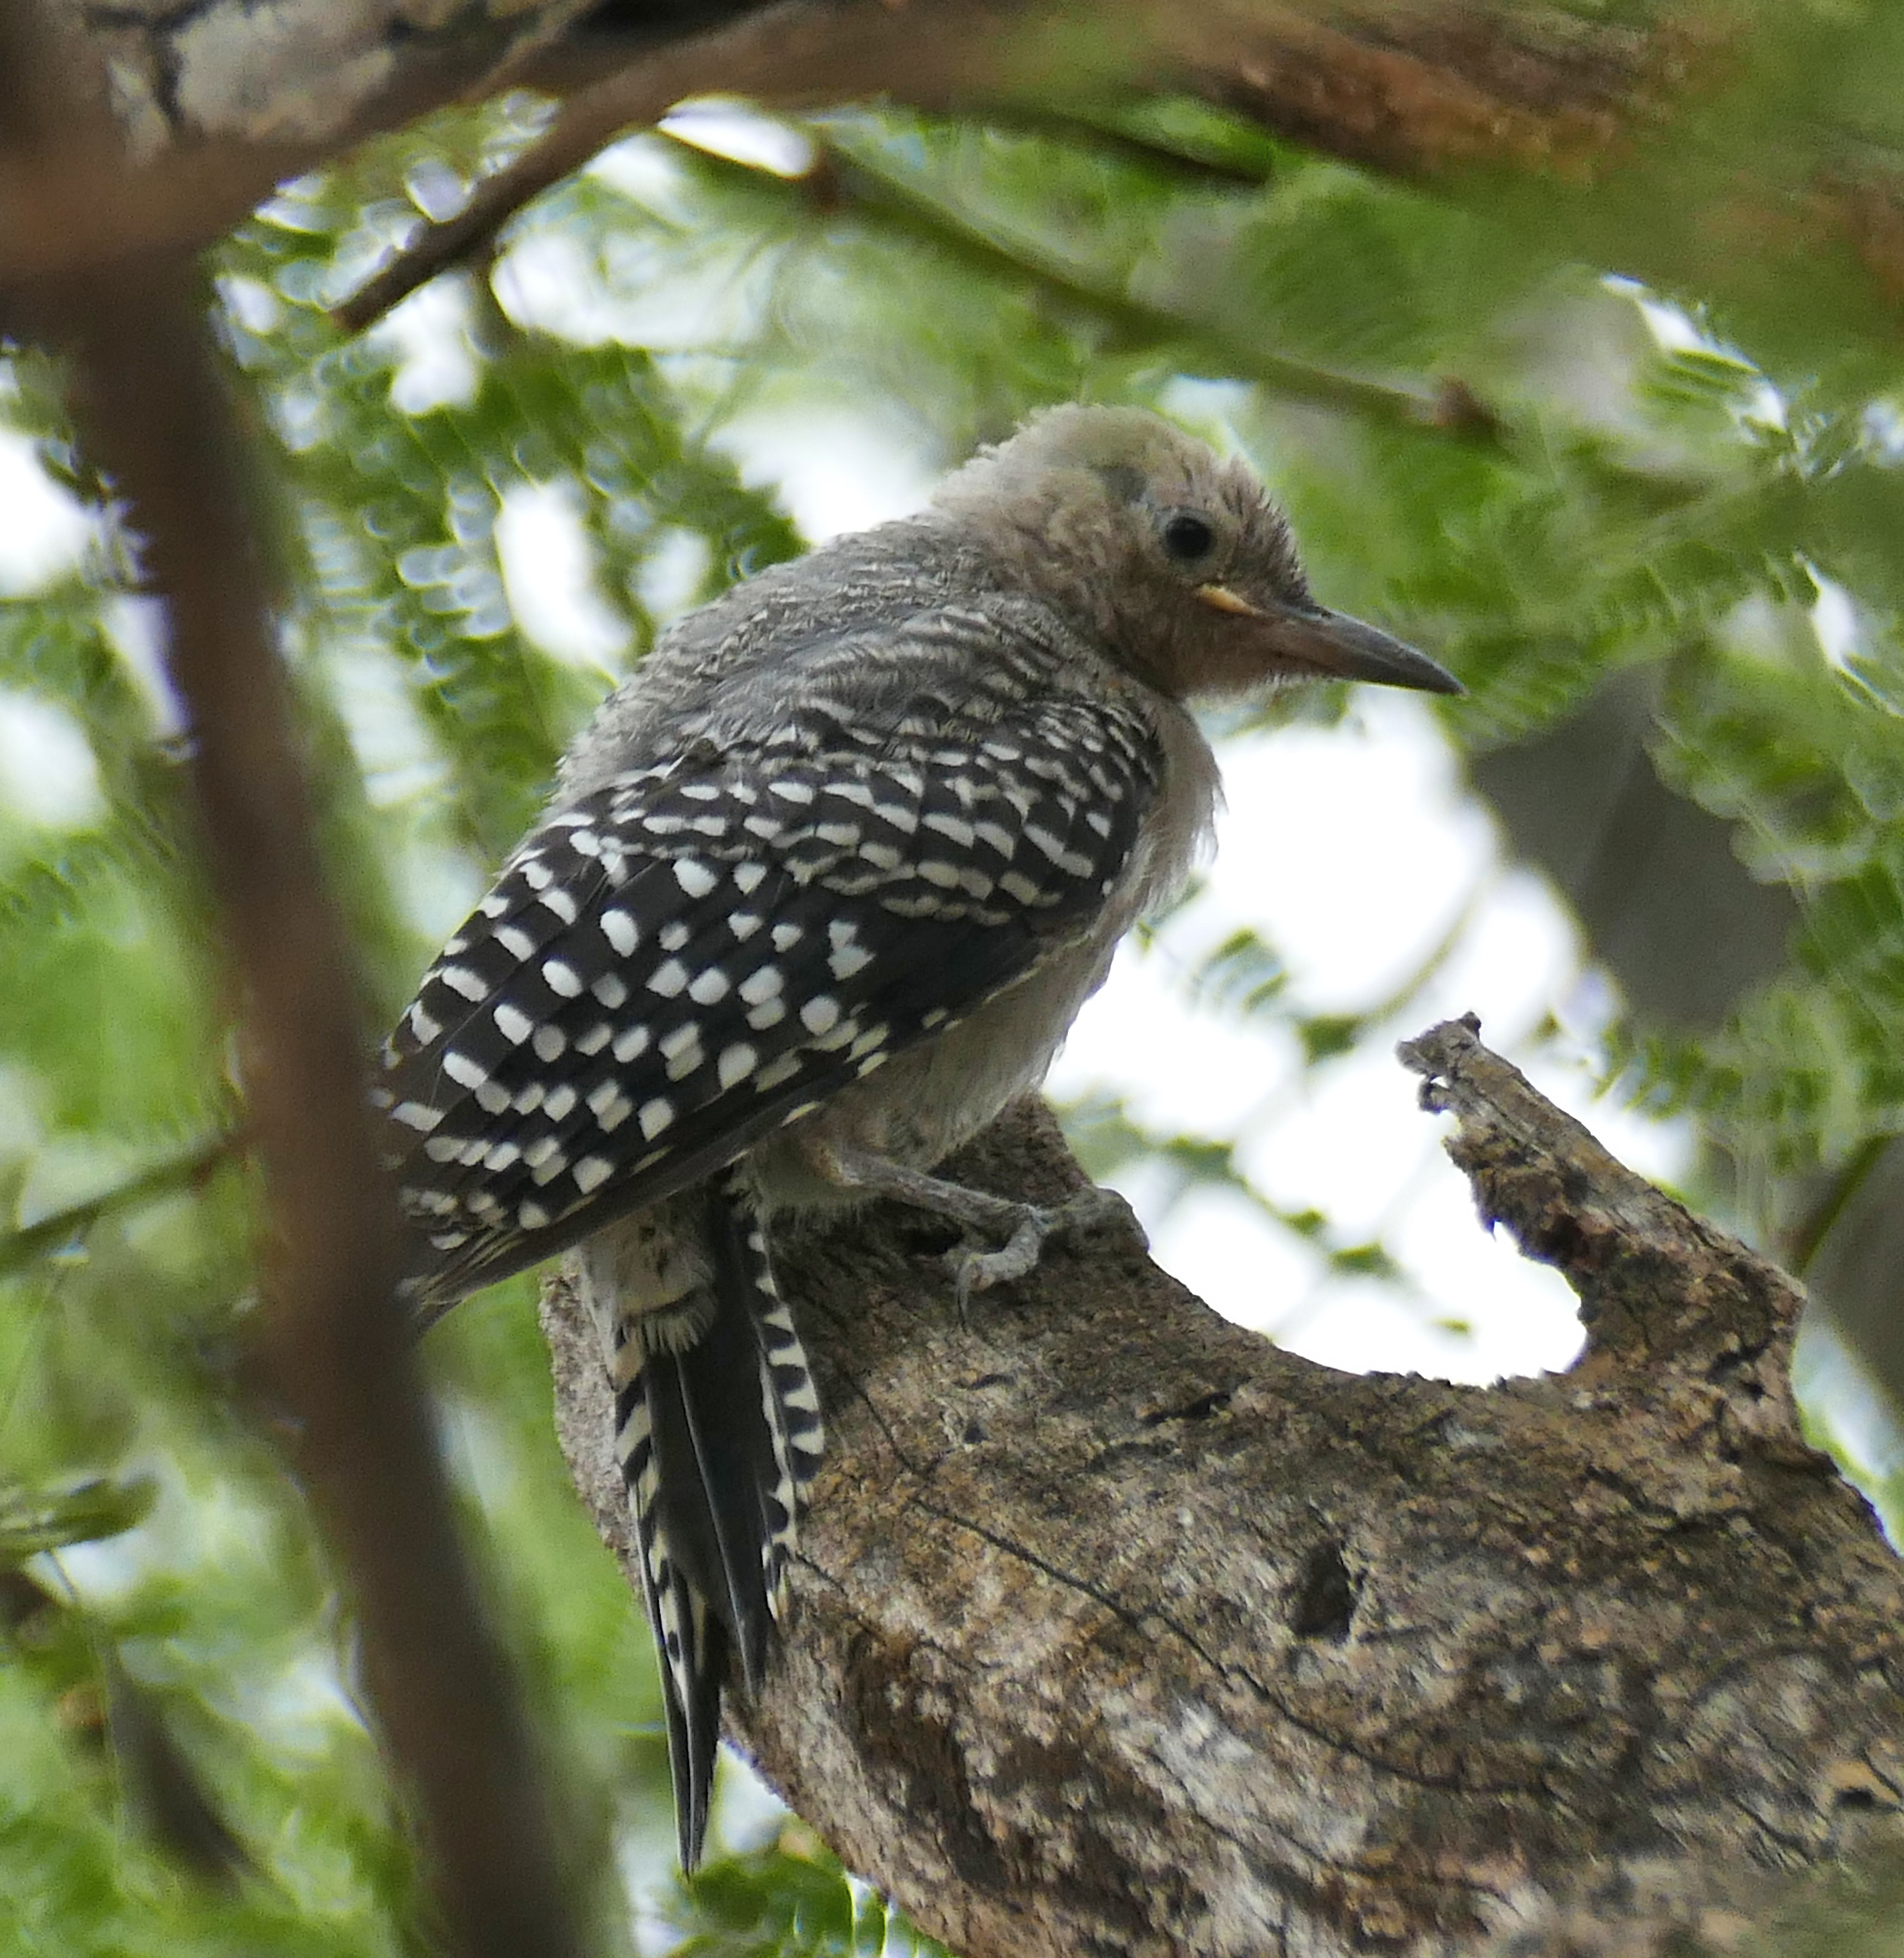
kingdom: Animalia
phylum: Chordata
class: Aves
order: Piciformes
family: Picidae
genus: Melanerpes
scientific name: Melanerpes uropygialis
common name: Gila woodpecker
